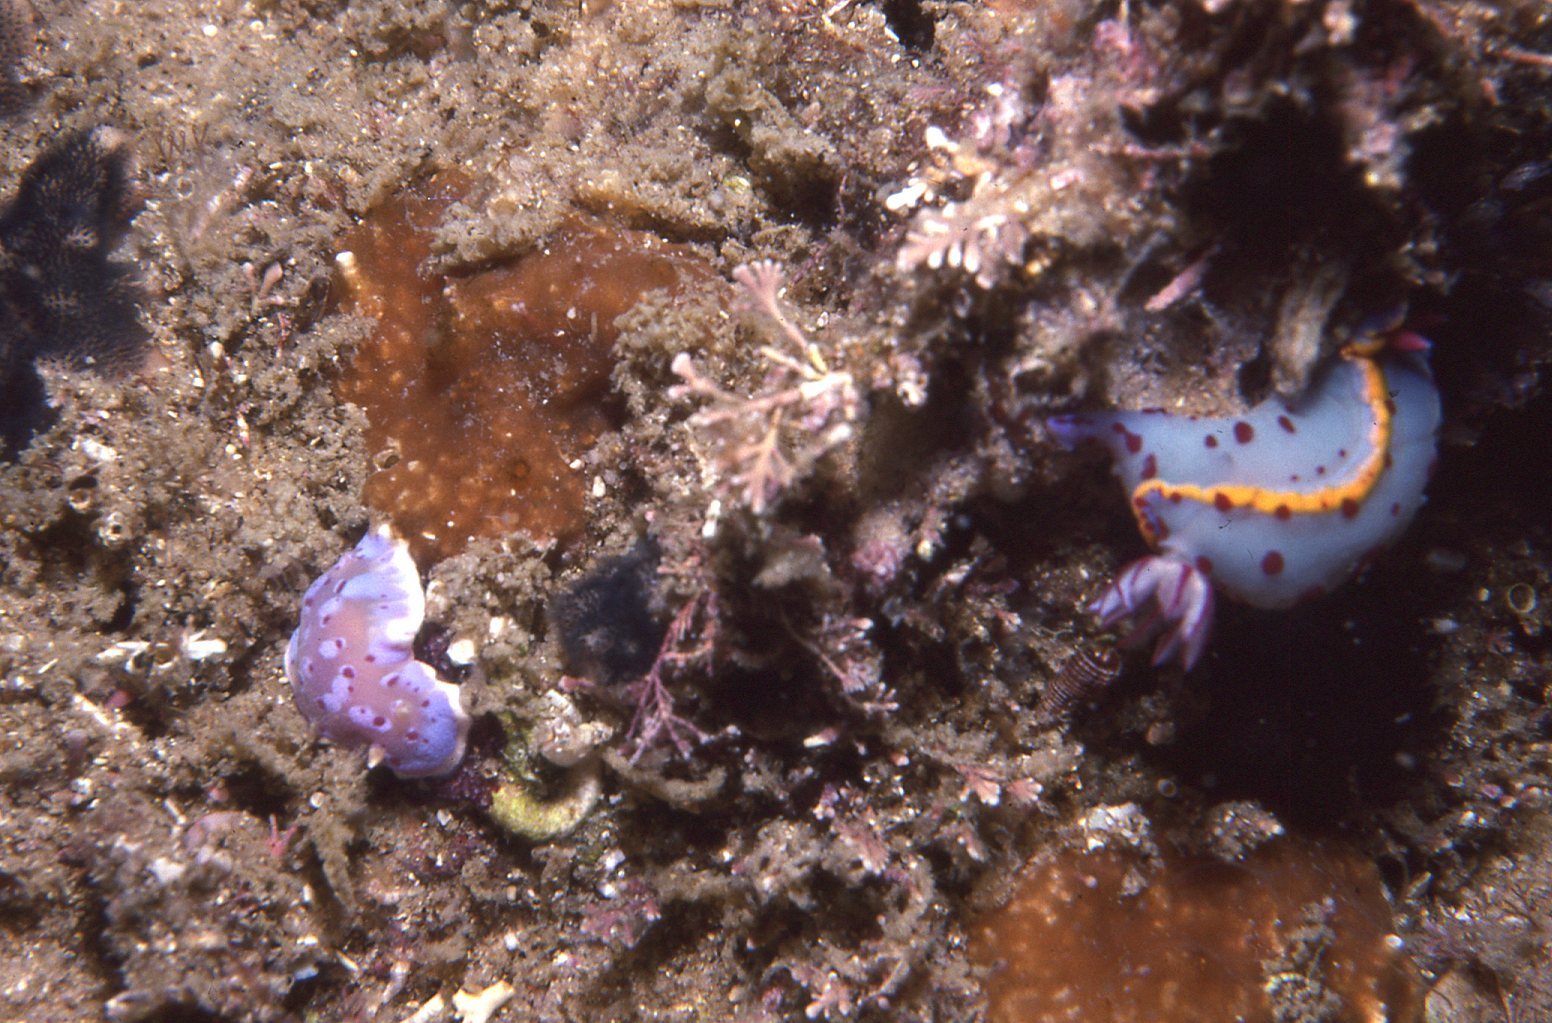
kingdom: Animalia
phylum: Mollusca
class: Gastropoda
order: Nudibranchia
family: Chromodorididae
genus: Hypselodoris
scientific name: Hypselodoris bennetti
